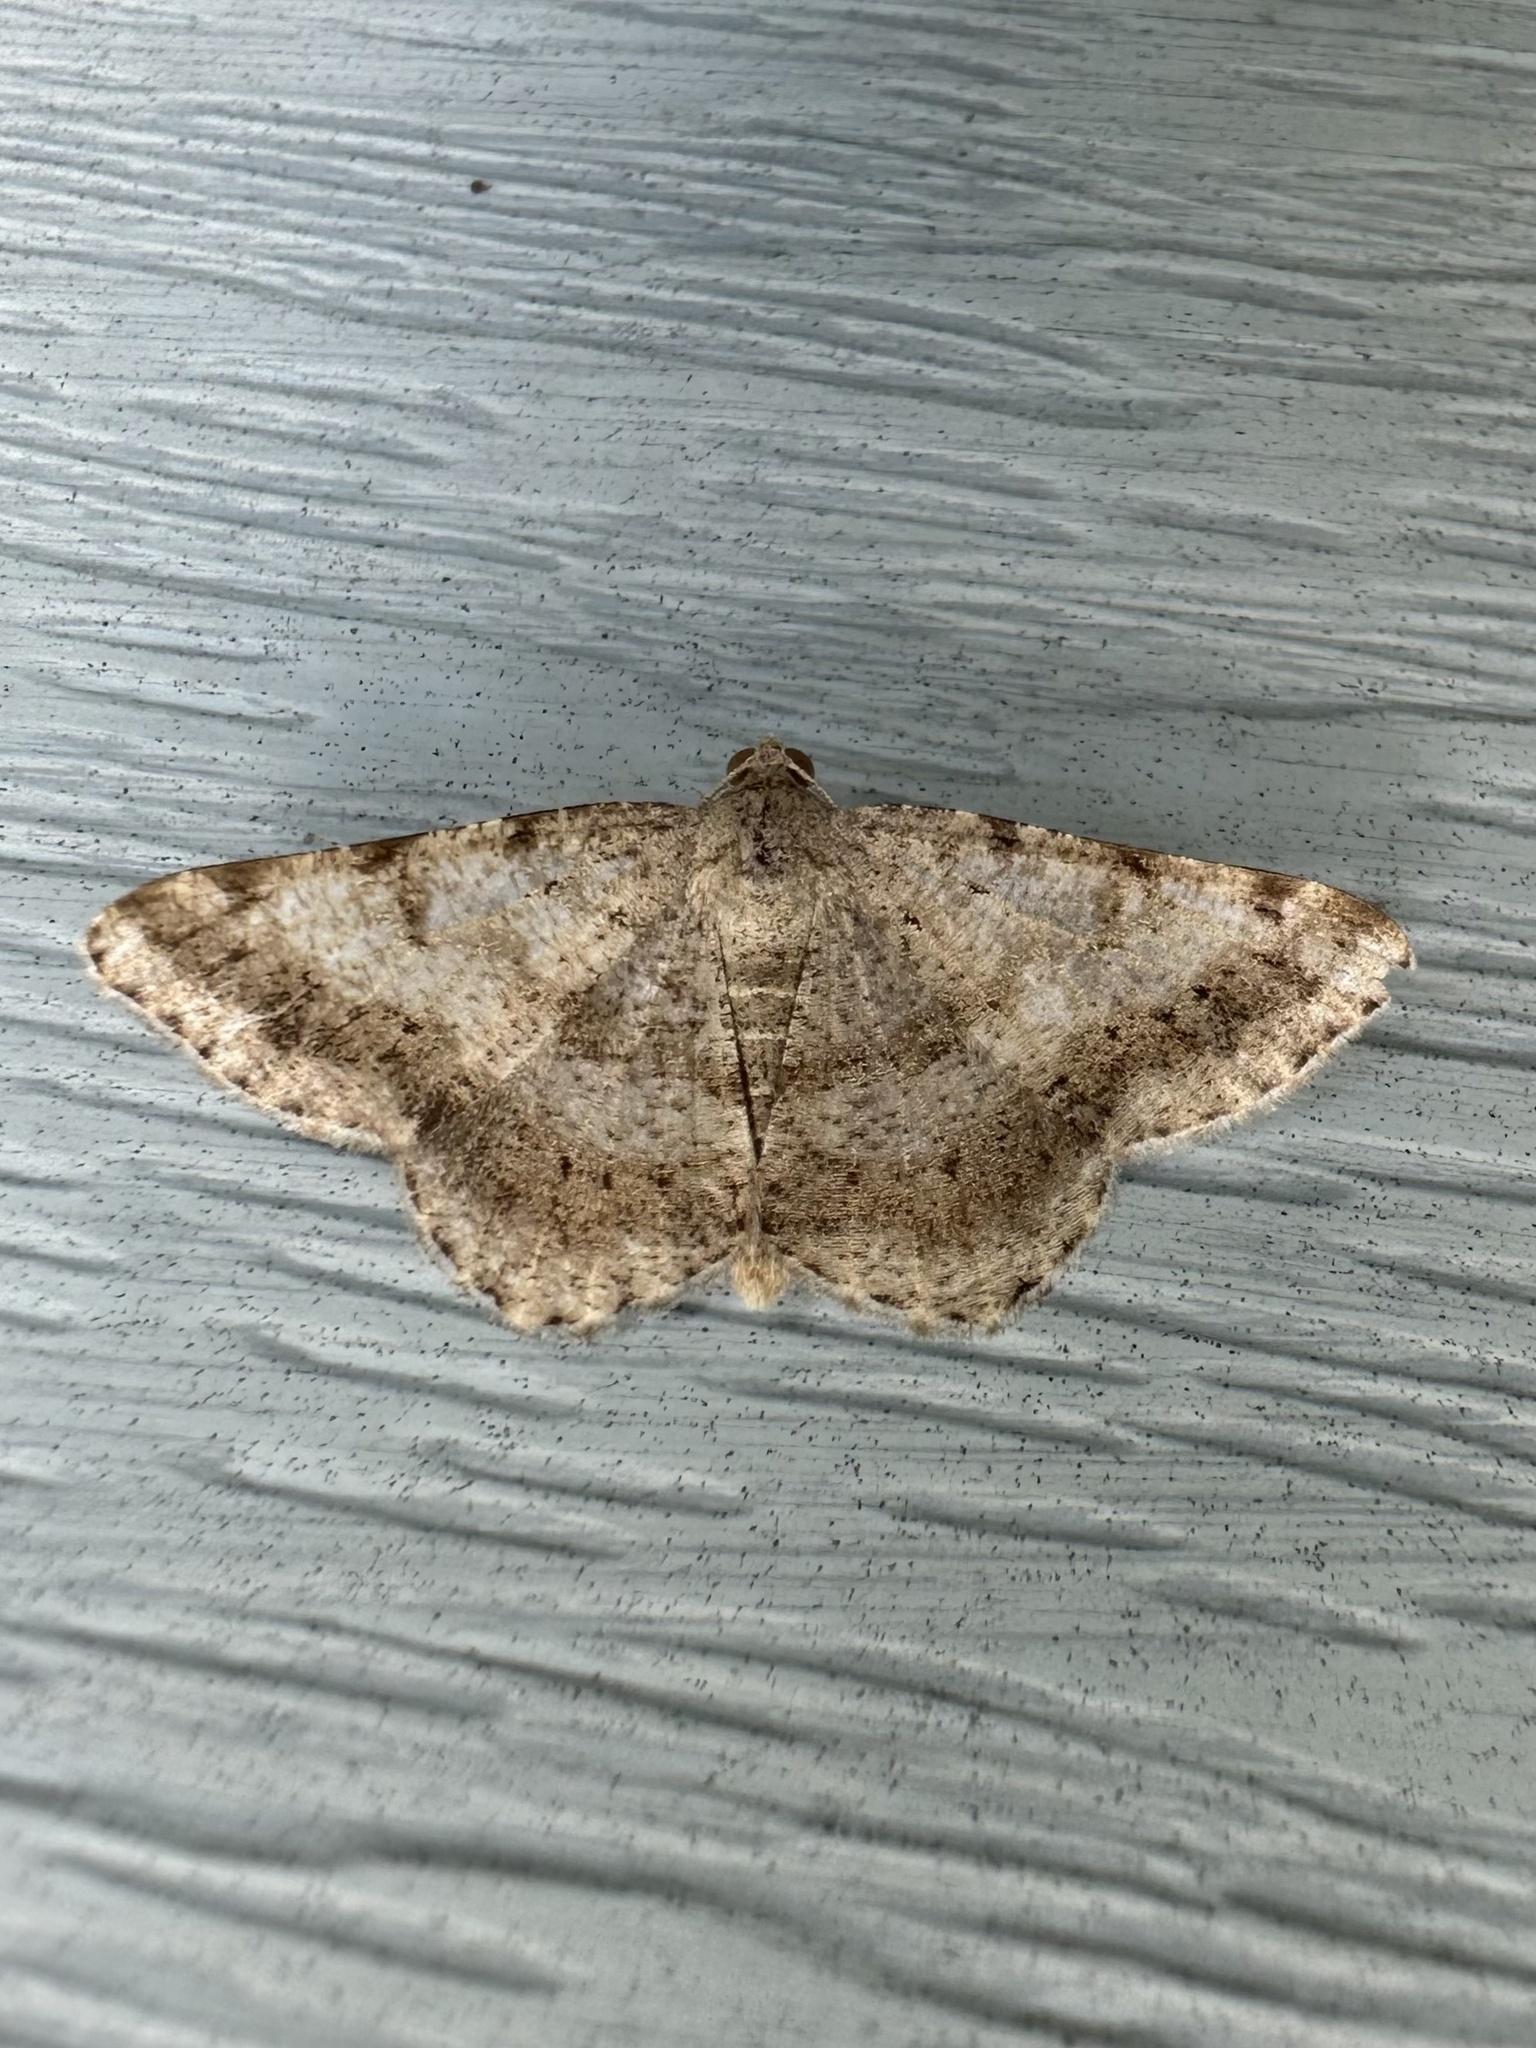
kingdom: Animalia
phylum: Arthropoda
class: Insecta
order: Lepidoptera
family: Geometridae
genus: Digrammia
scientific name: Digrammia ocellinata
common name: Faint-spotted angle
